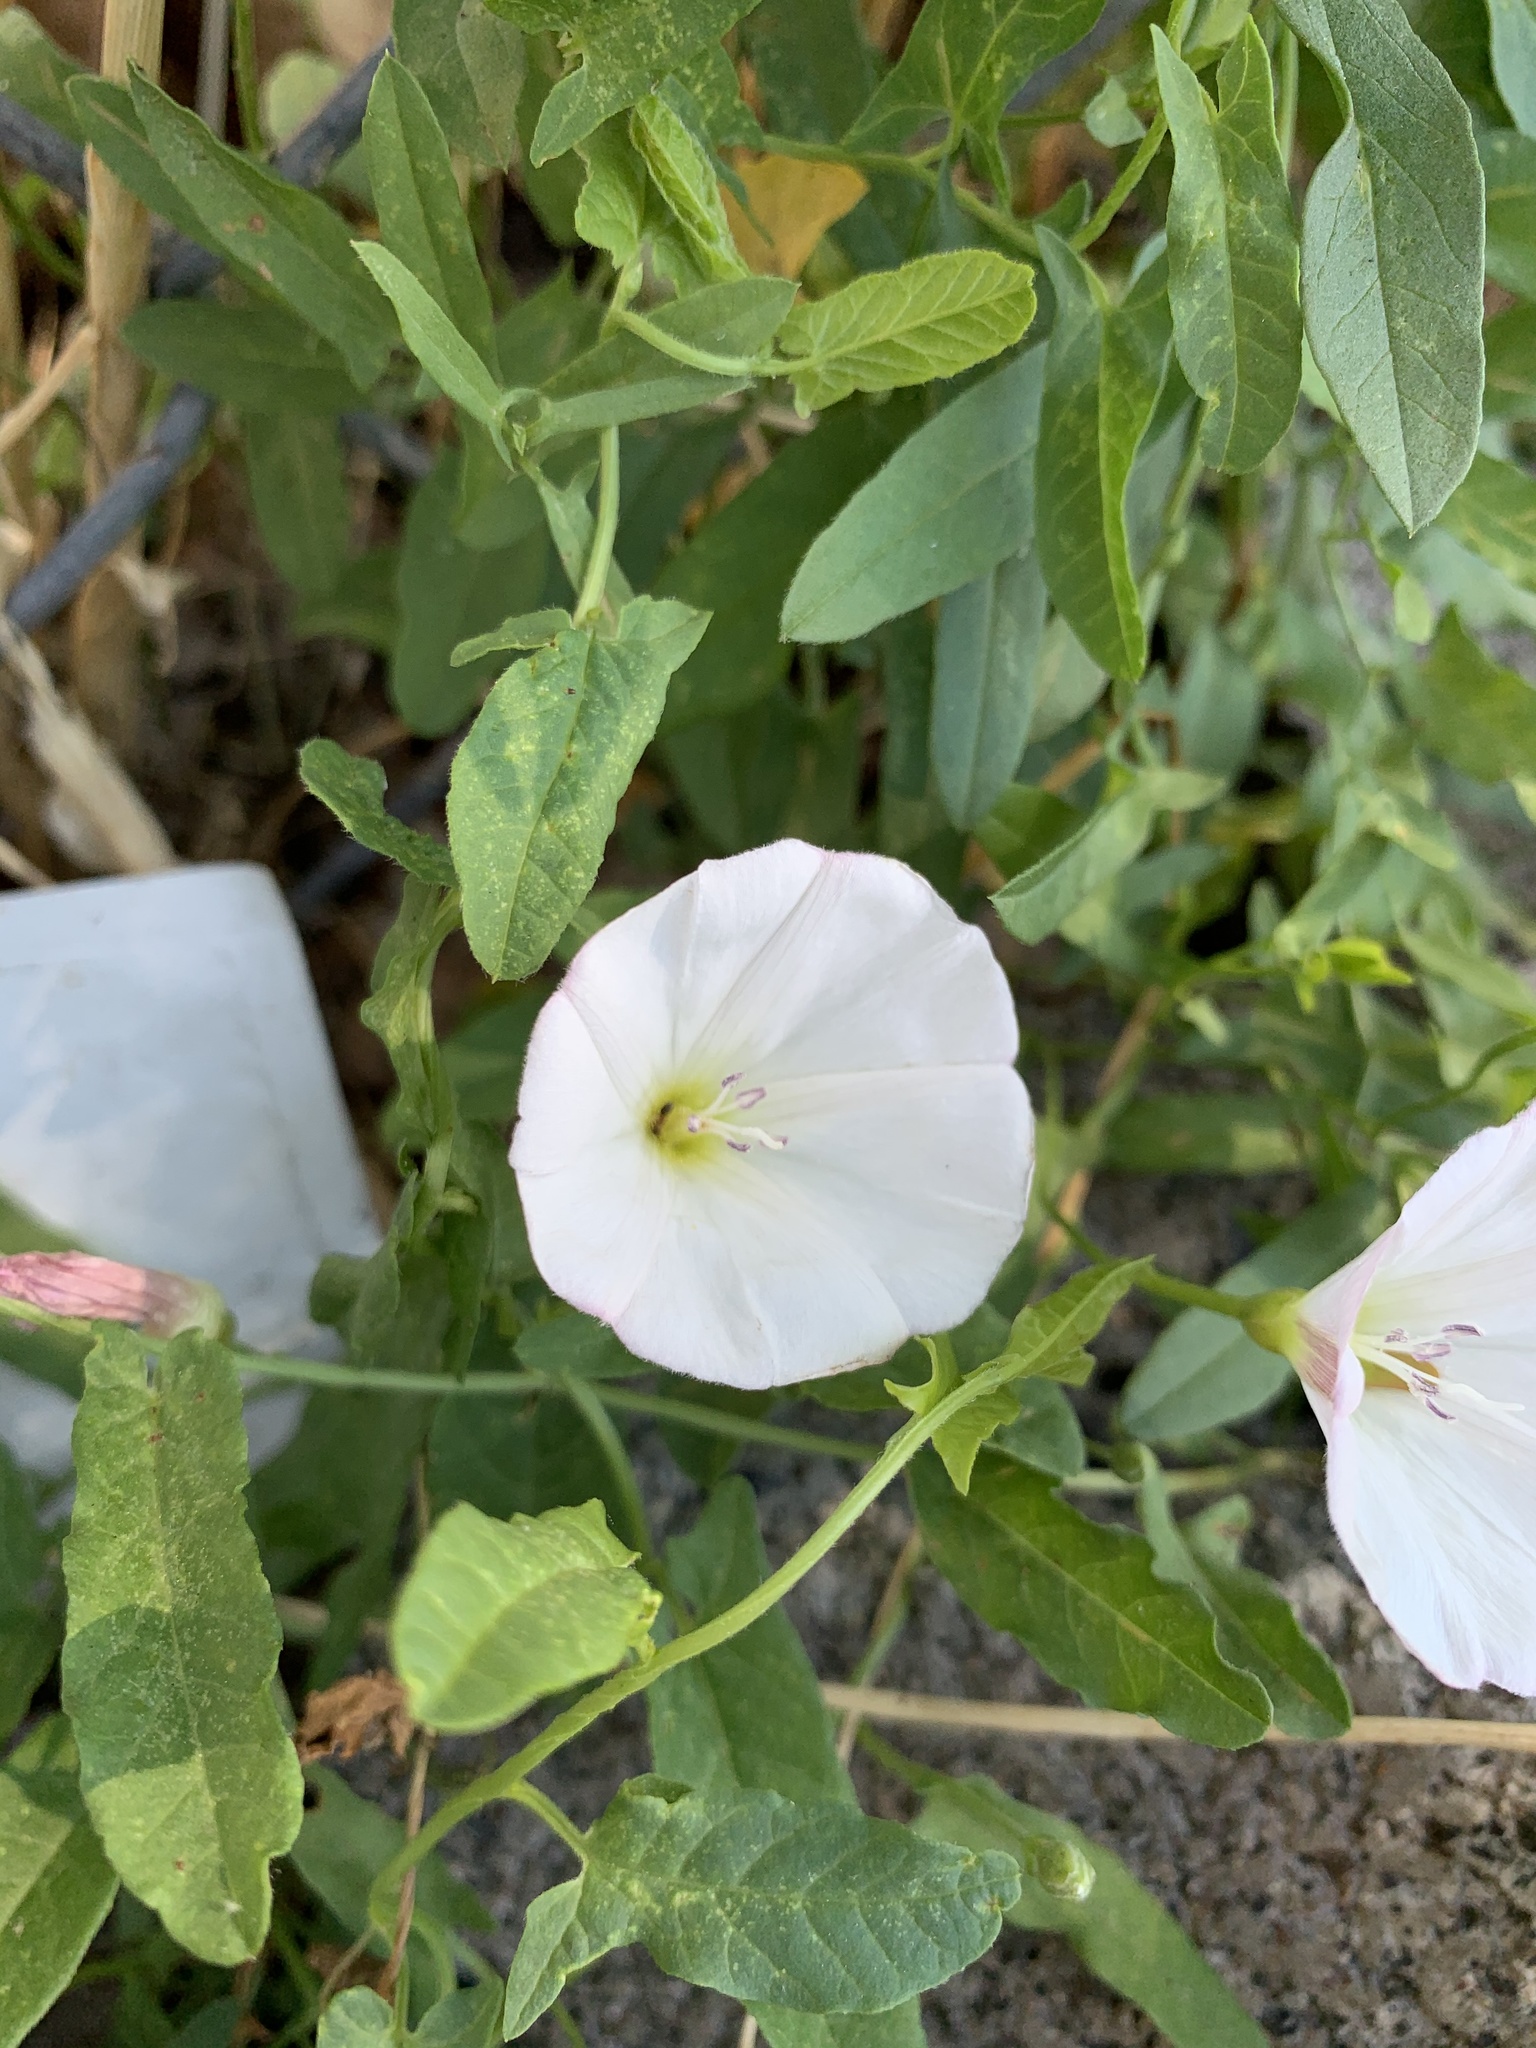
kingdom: Plantae
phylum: Tracheophyta
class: Magnoliopsida
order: Solanales
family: Convolvulaceae
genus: Convolvulus
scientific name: Convolvulus arvensis
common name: Field bindweed
